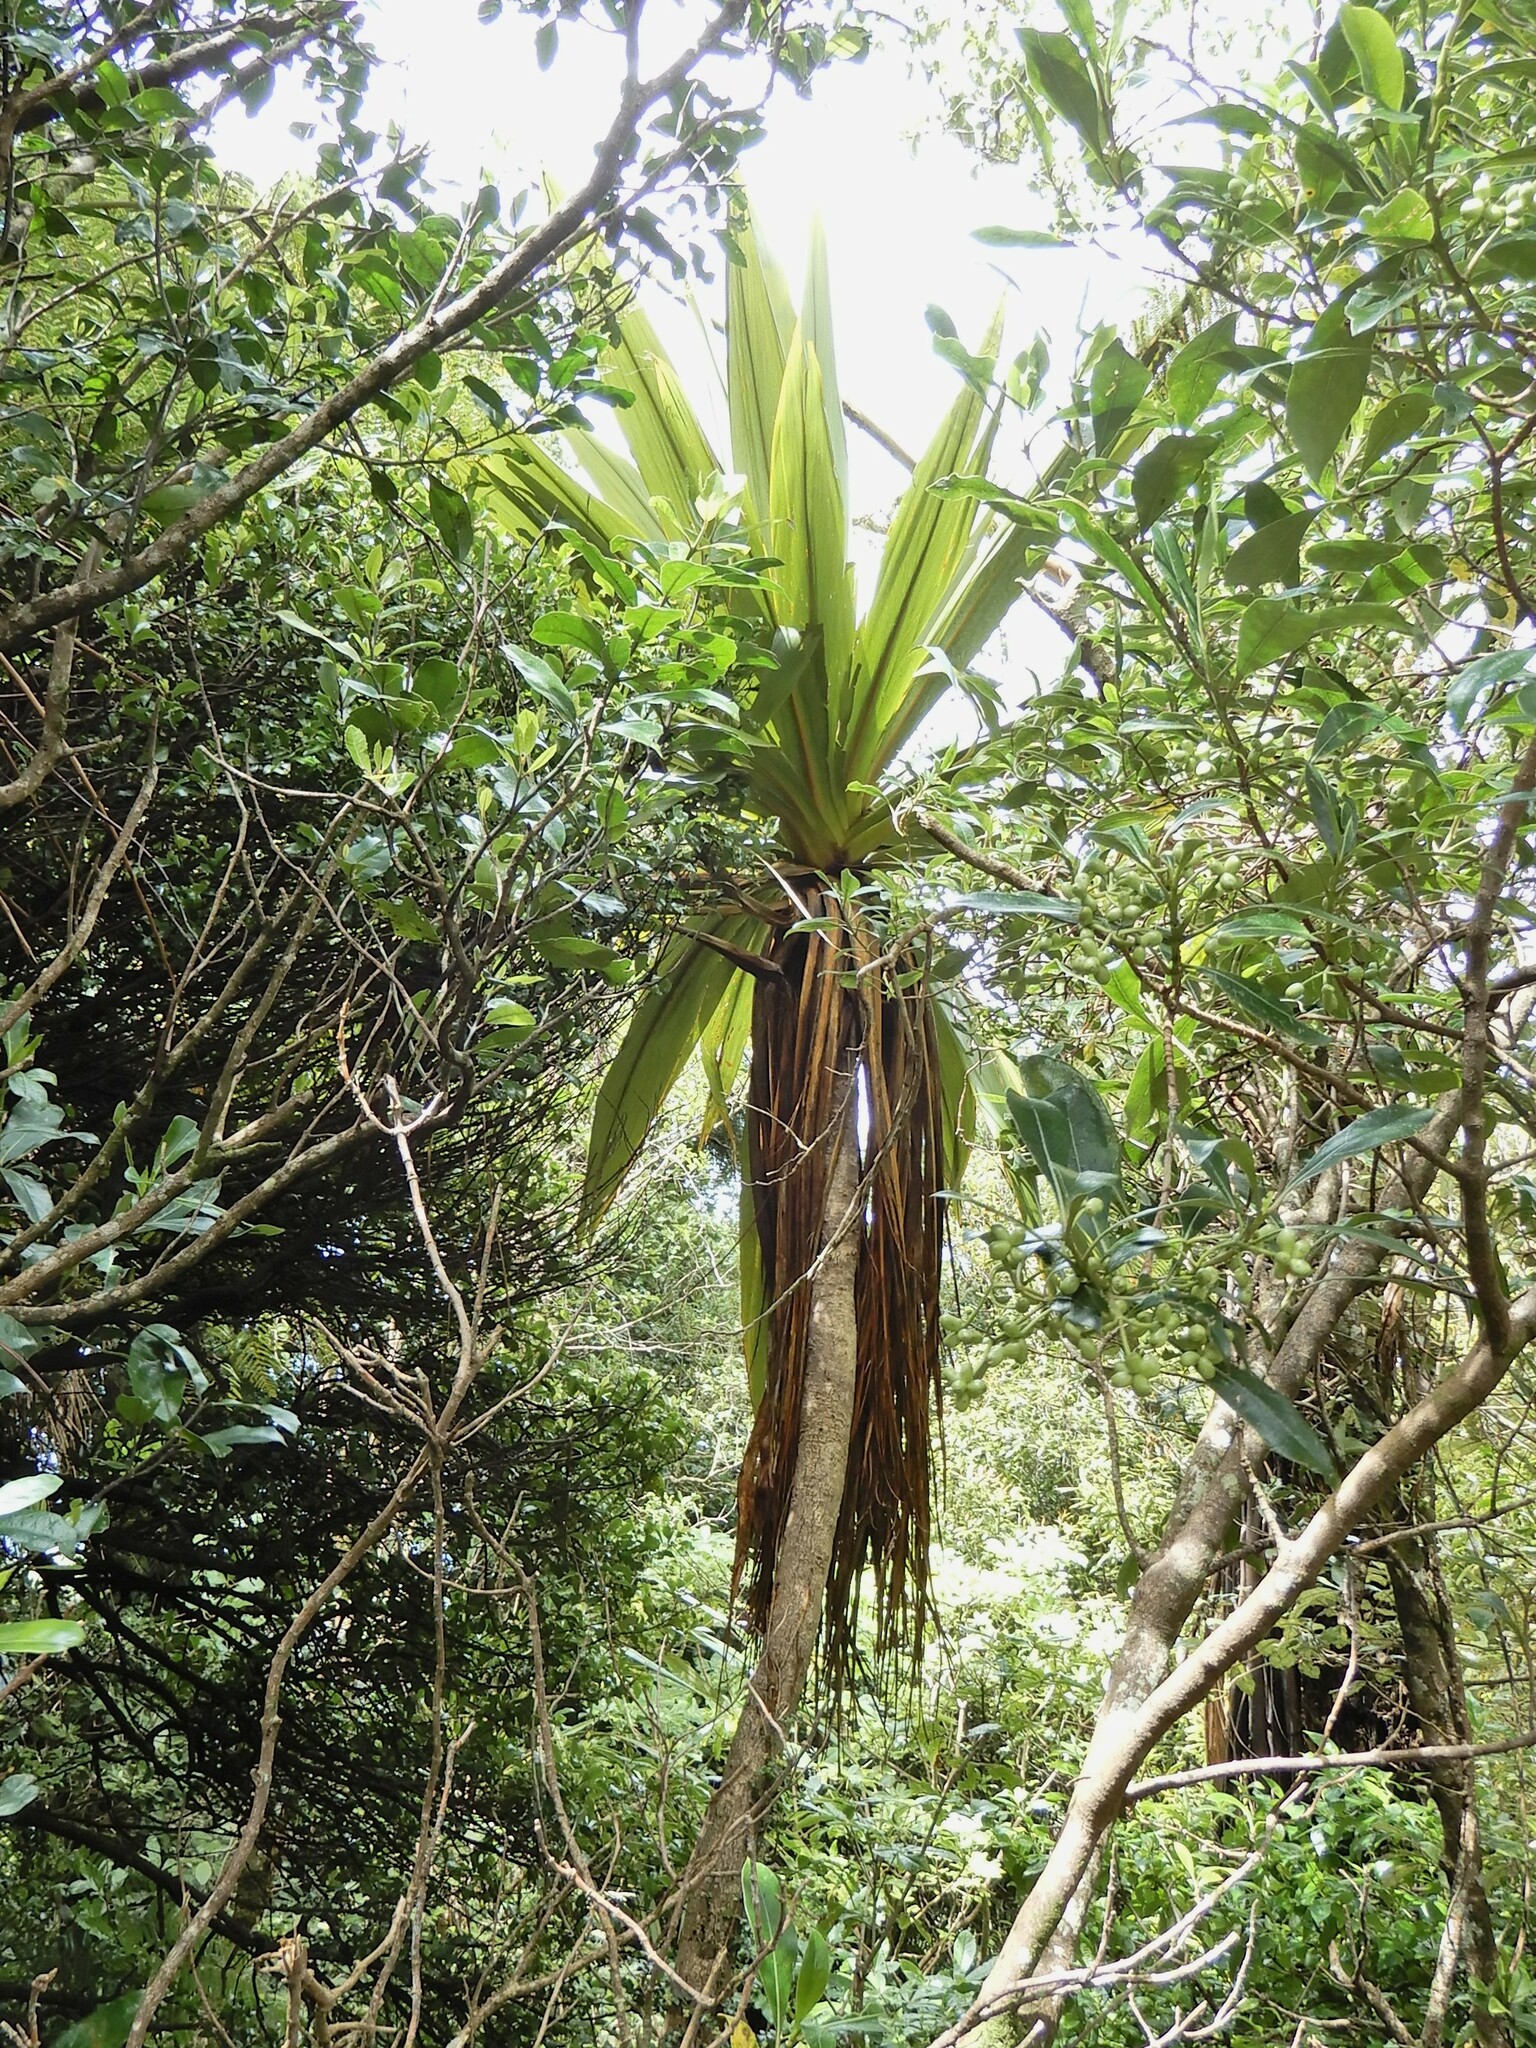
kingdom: Plantae
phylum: Tracheophyta
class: Liliopsida
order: Asparagales
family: Asparagaceae
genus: Cordyline
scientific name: Cordyline indivisa
